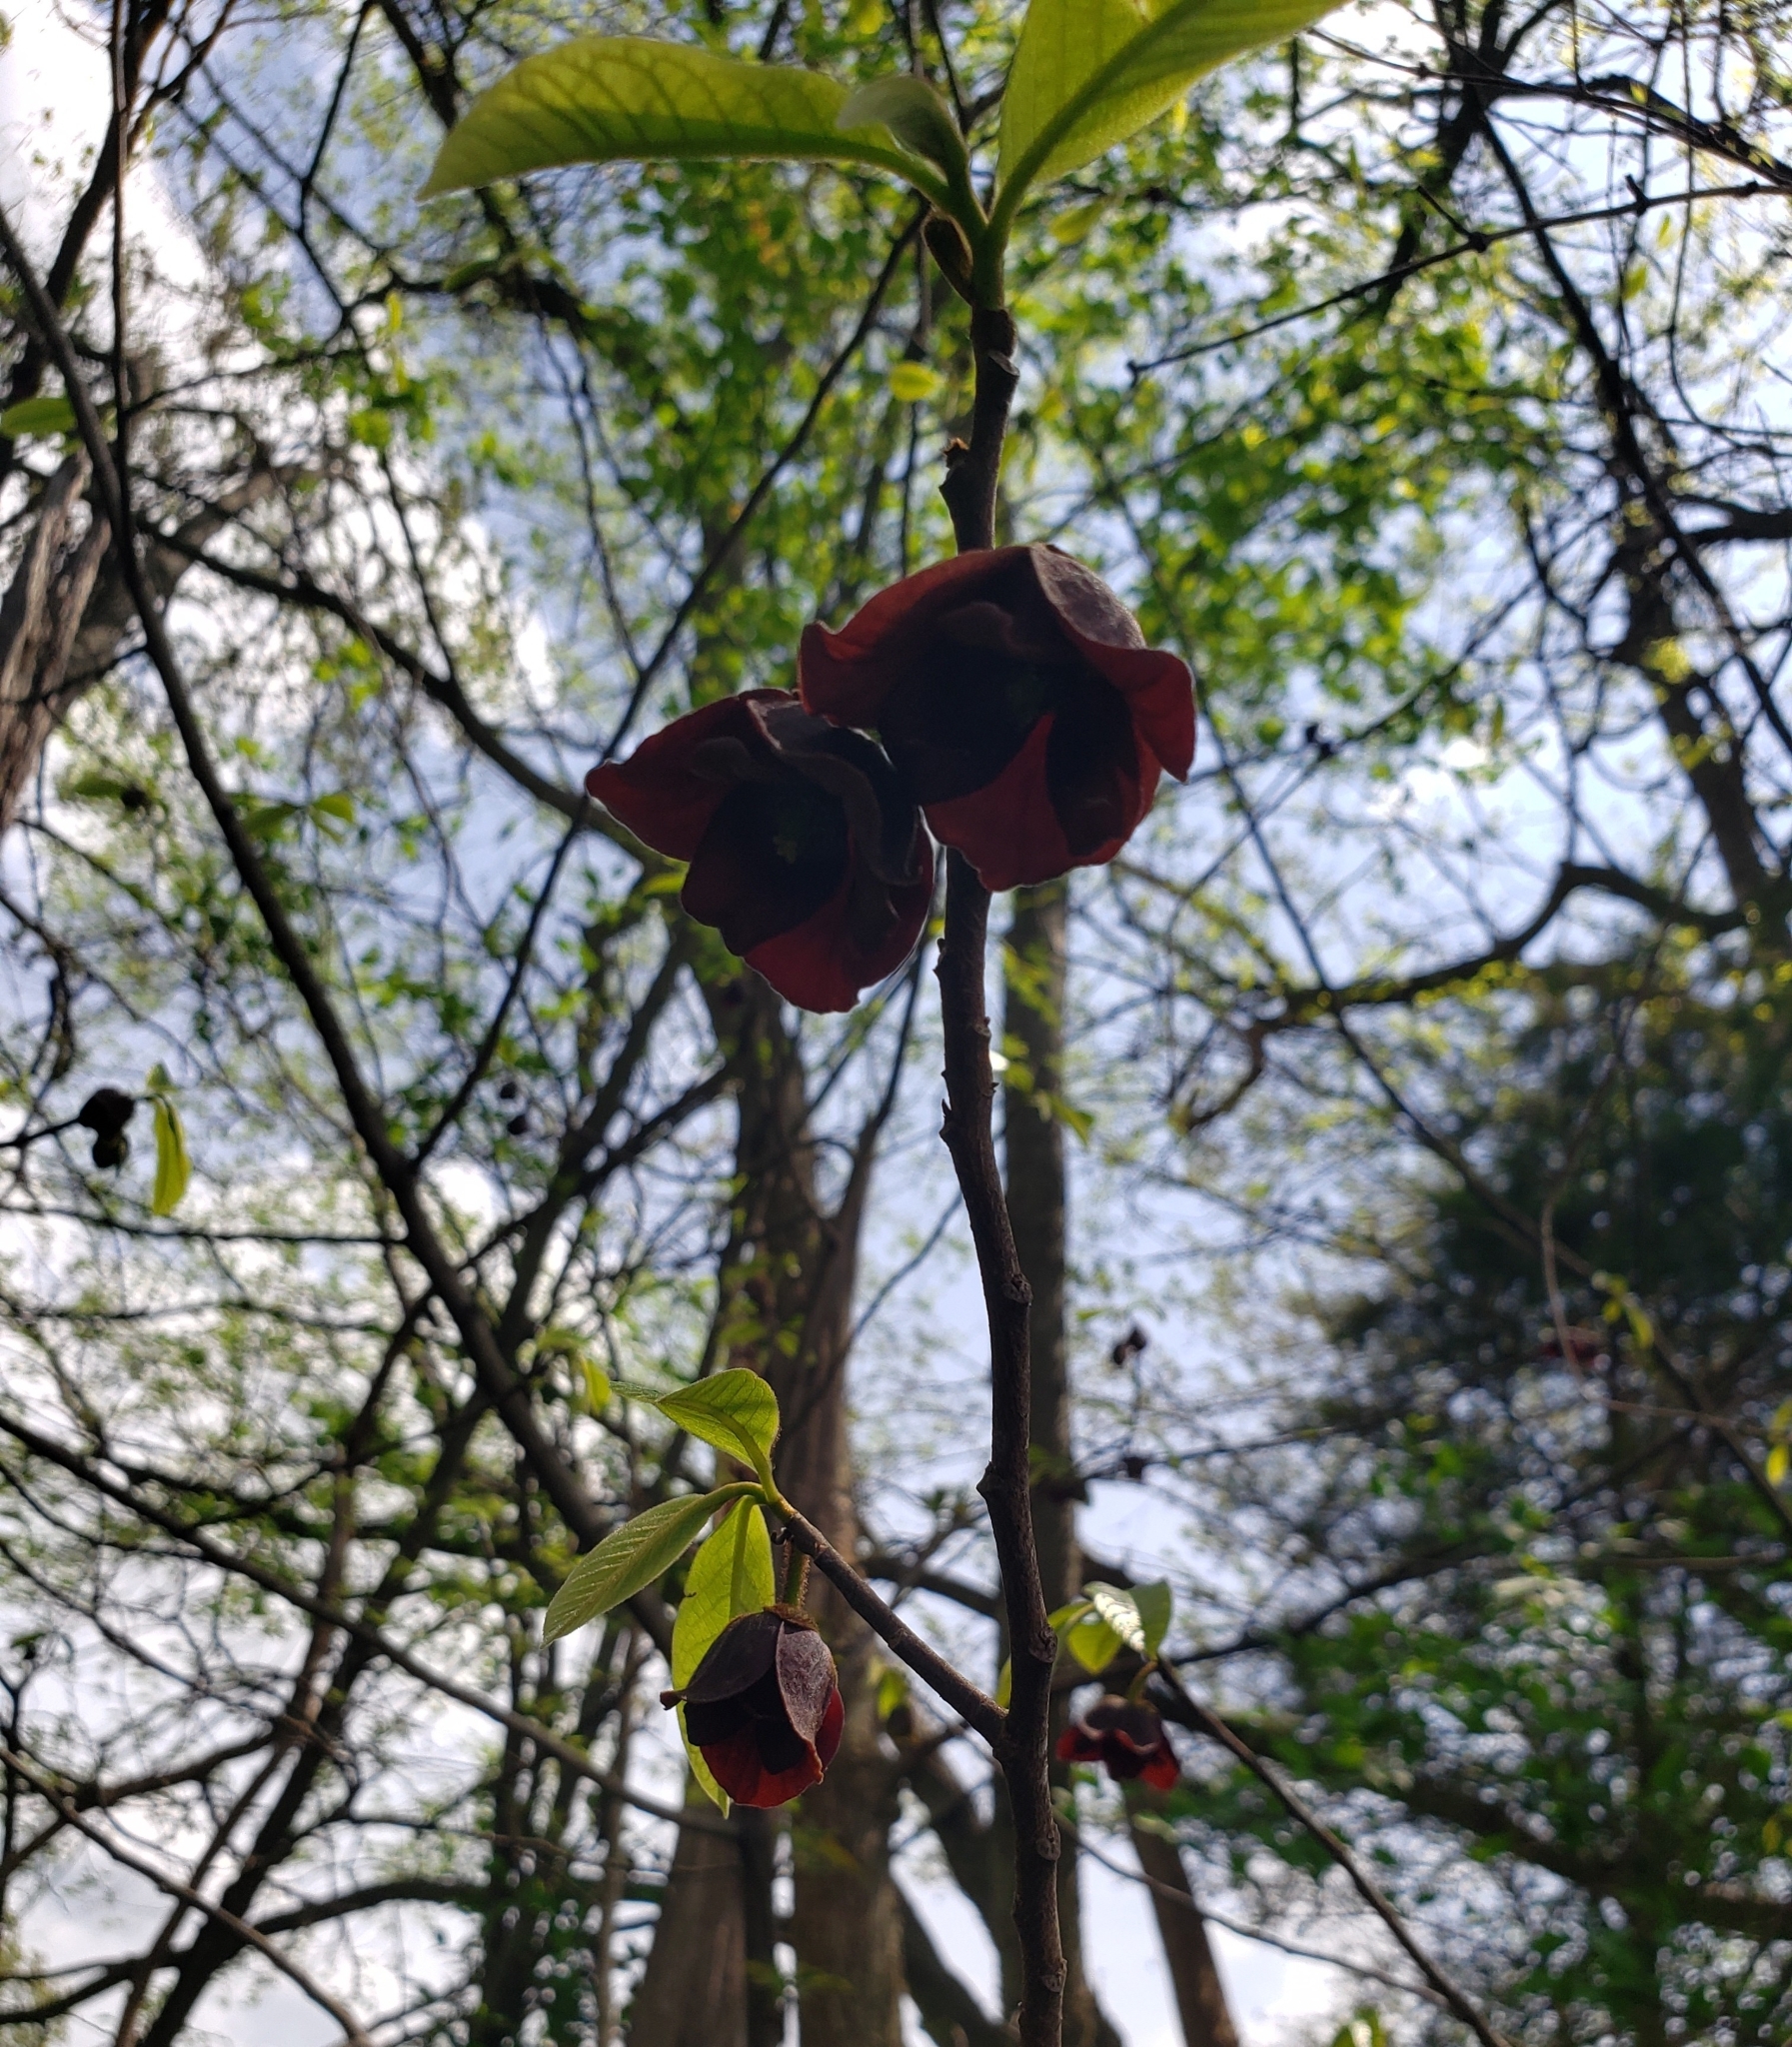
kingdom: Plantae
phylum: Tracheophyta
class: Magnoliopsida
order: Magnoliales
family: Annonaceae
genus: Asimina
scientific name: Asimina triloba
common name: Dog-banana
